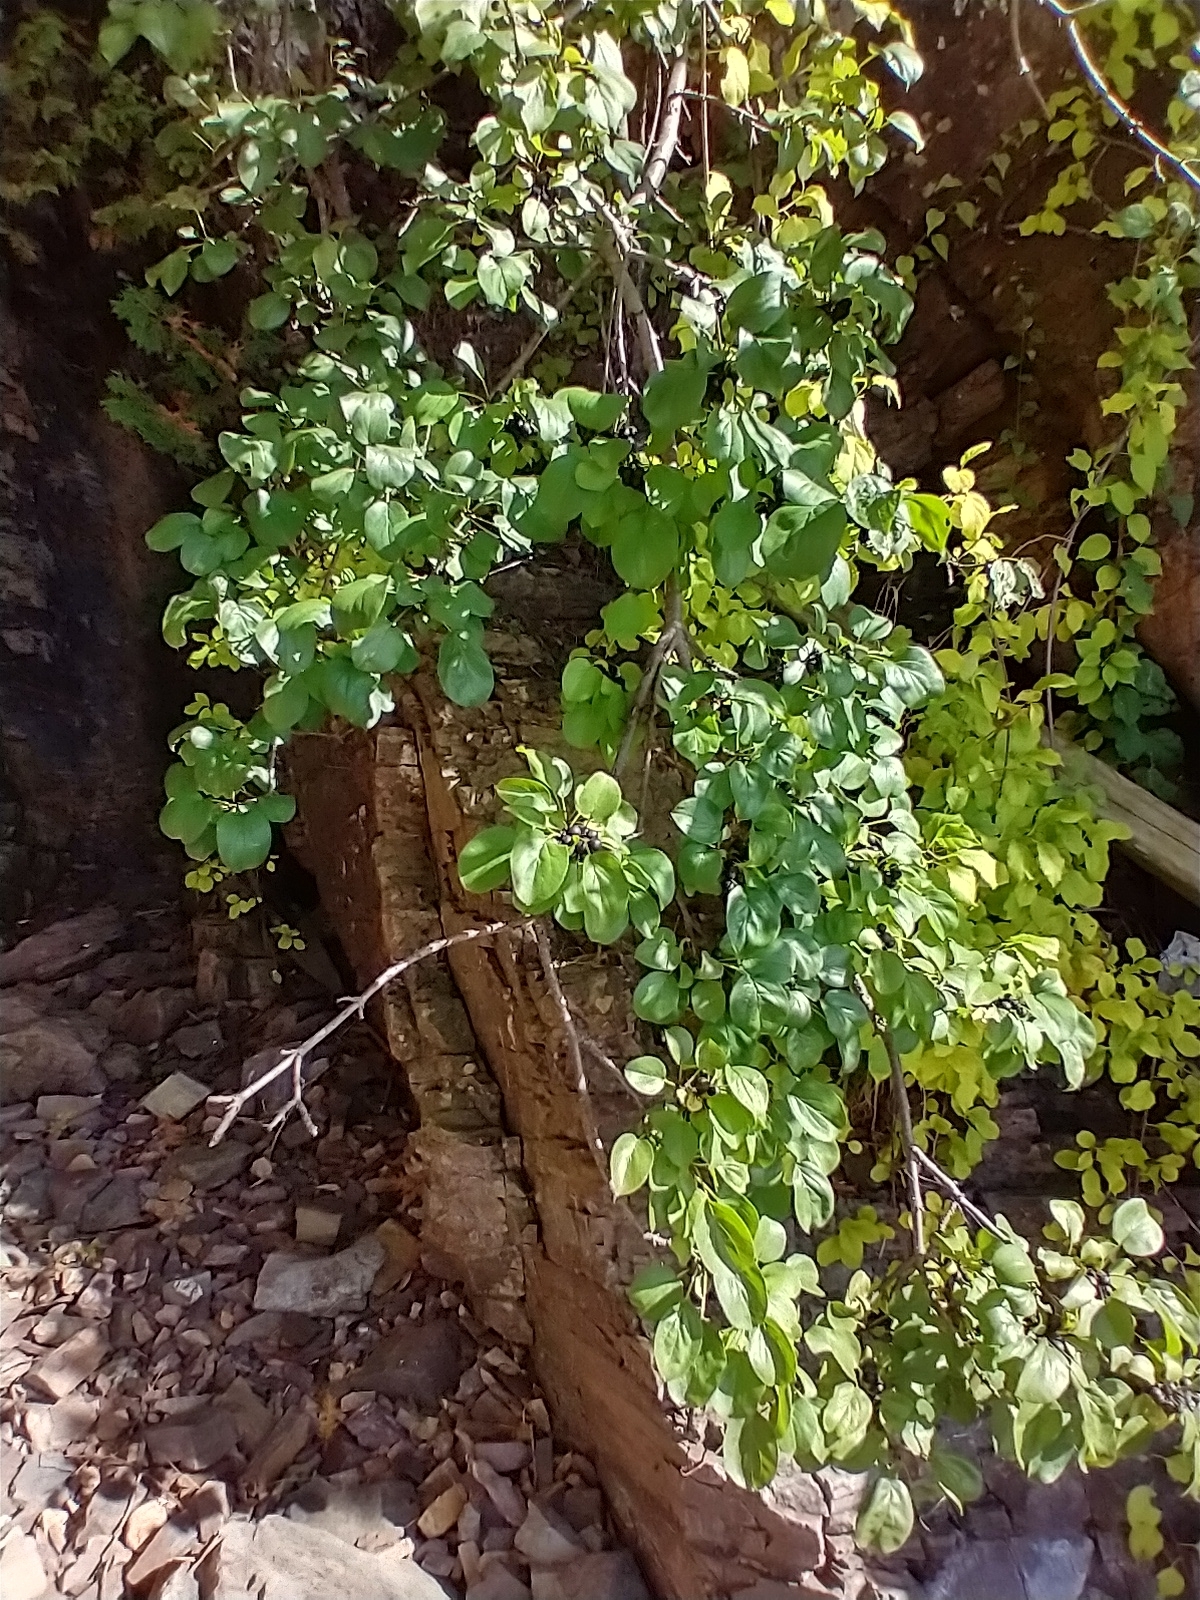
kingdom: Plantae
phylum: Tracheophyta
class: Magnoliopsida
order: Rosales
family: Rhamnaceae
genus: Rhamnus
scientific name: Rhamnus cathartica
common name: Common buckthorn
